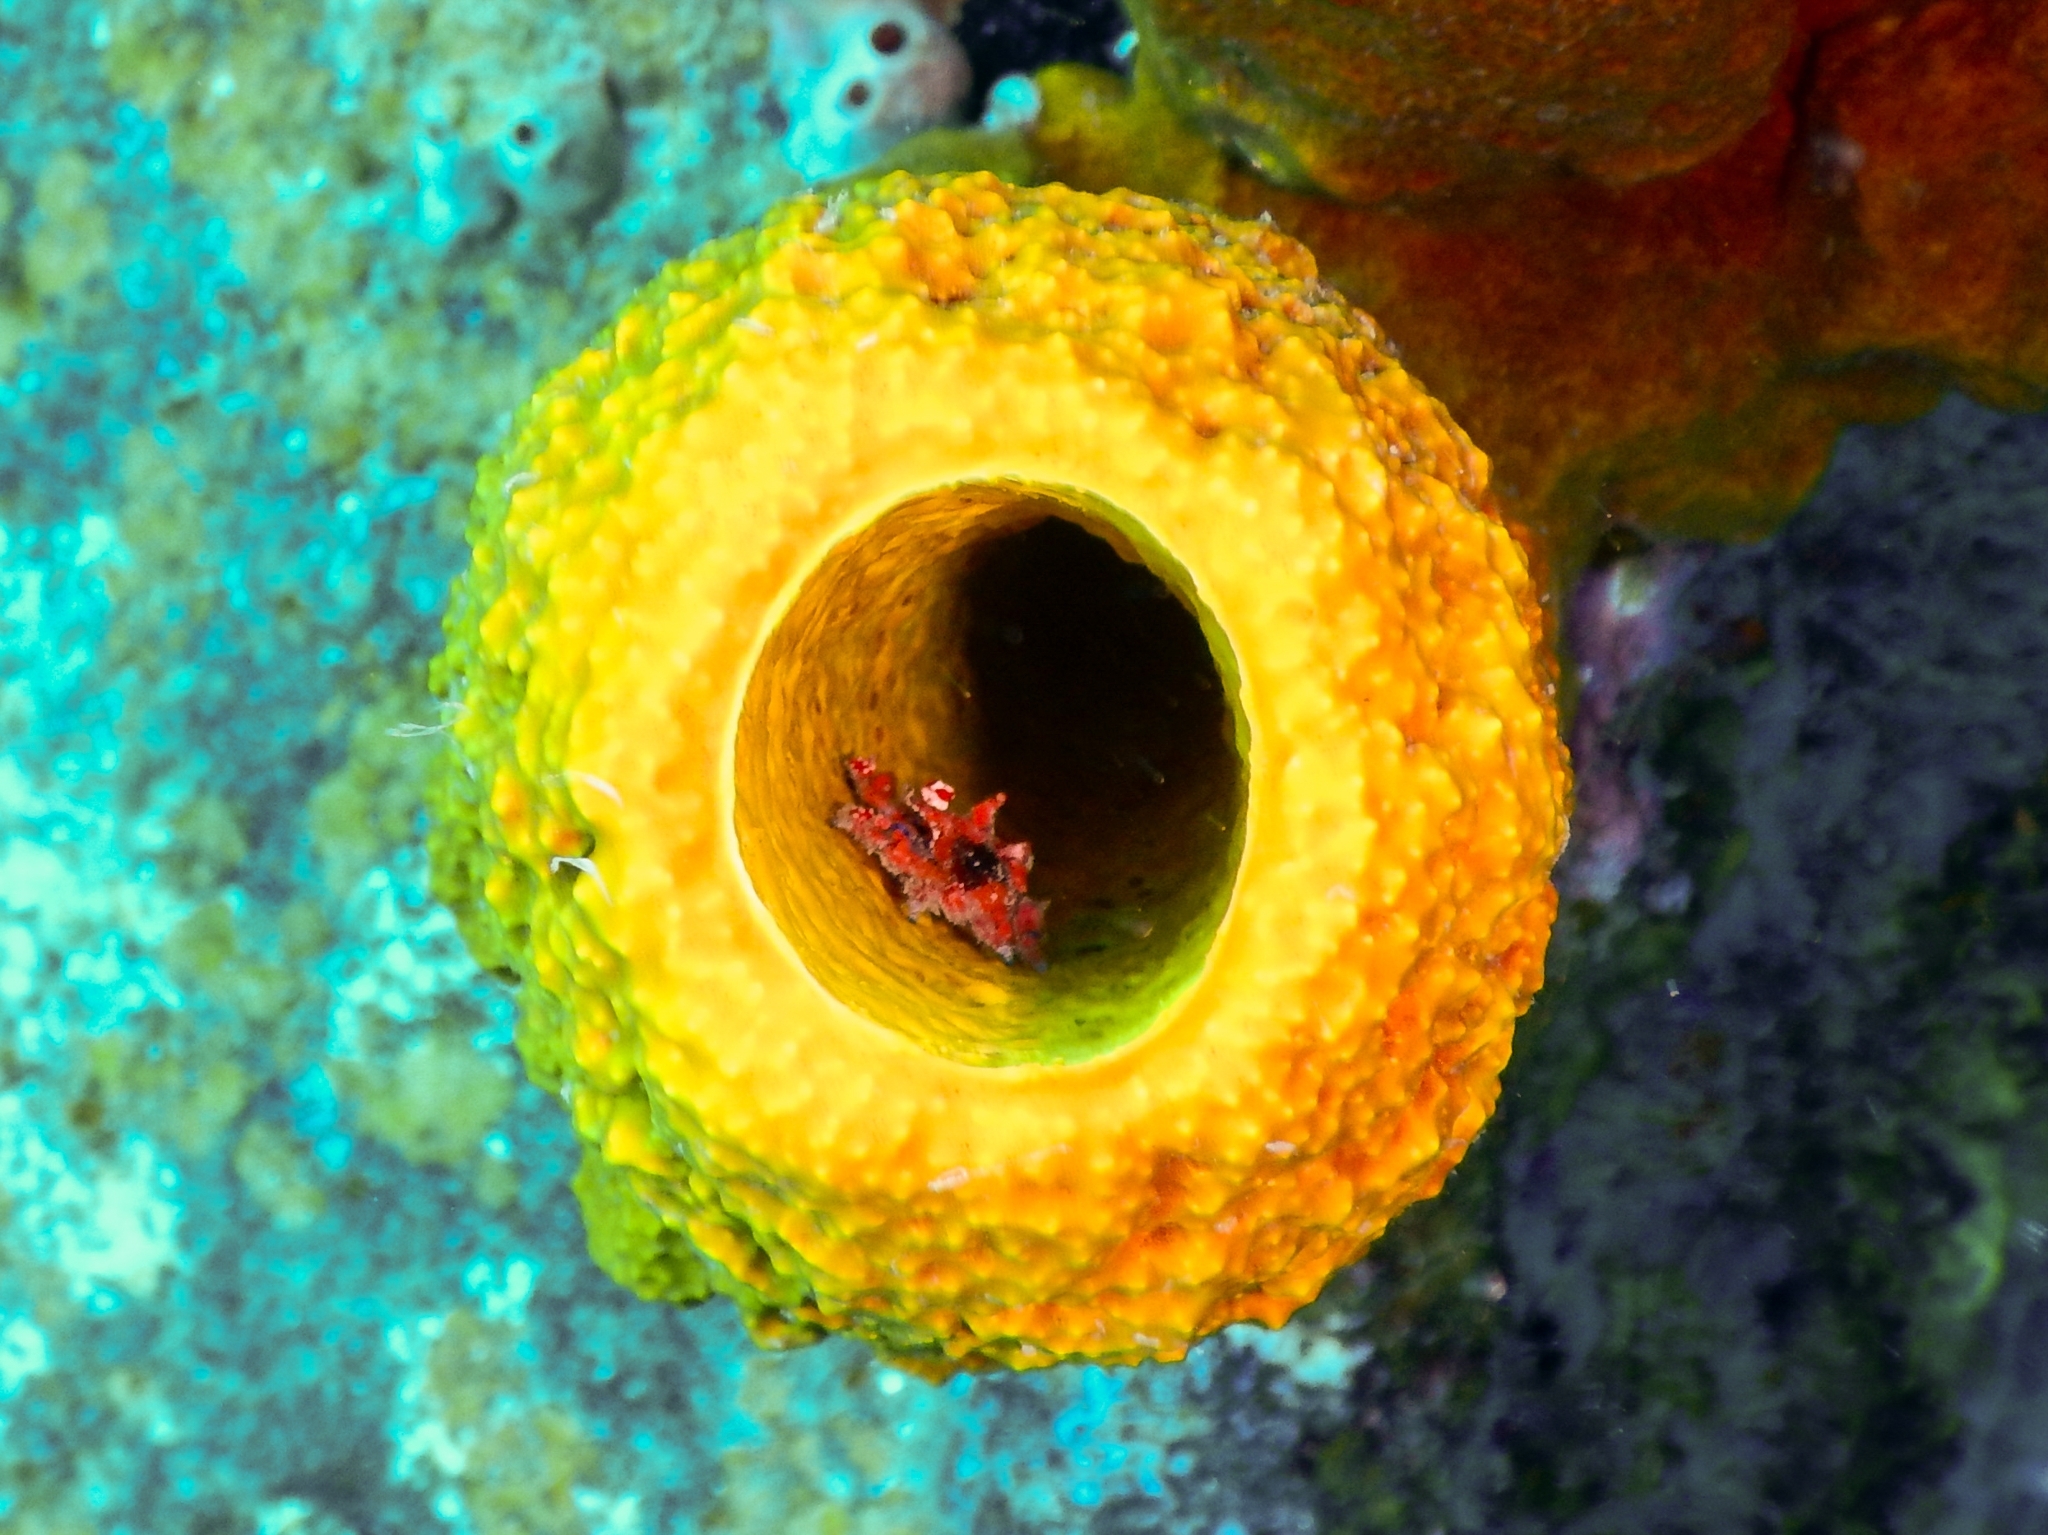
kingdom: Animalia
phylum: Arthropoda
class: Malacostraca
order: Decapoda
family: Epialtidae
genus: Pelia
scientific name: Pelia mutica
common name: Cryptic teardrop crab
